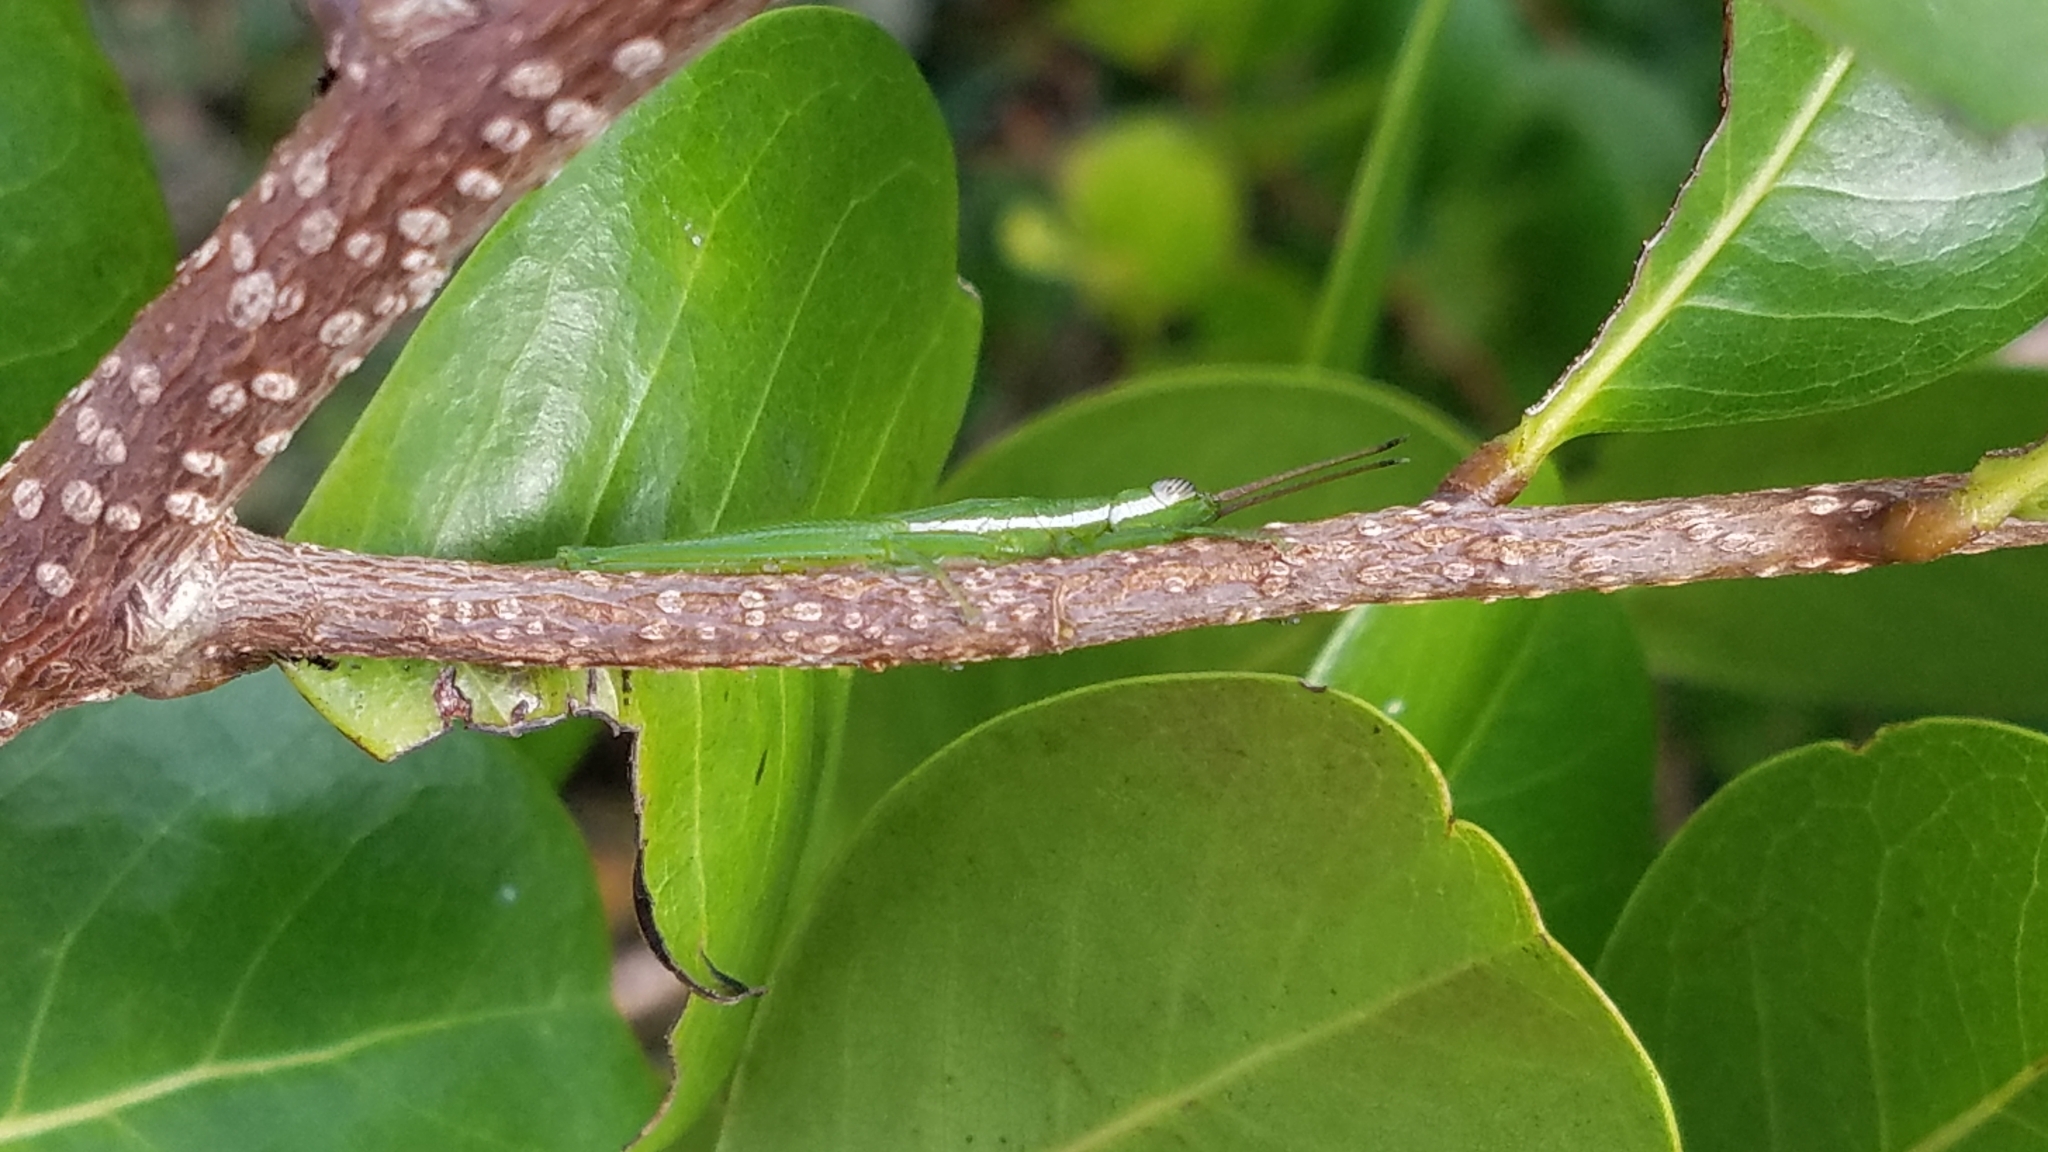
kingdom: Animalia
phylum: Arthropoda
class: Insecta
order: Orthoptera
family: Acrididae
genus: Stenacris
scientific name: Stenacris vitreipennis
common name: Glassy-winged toothpick grasshopper
